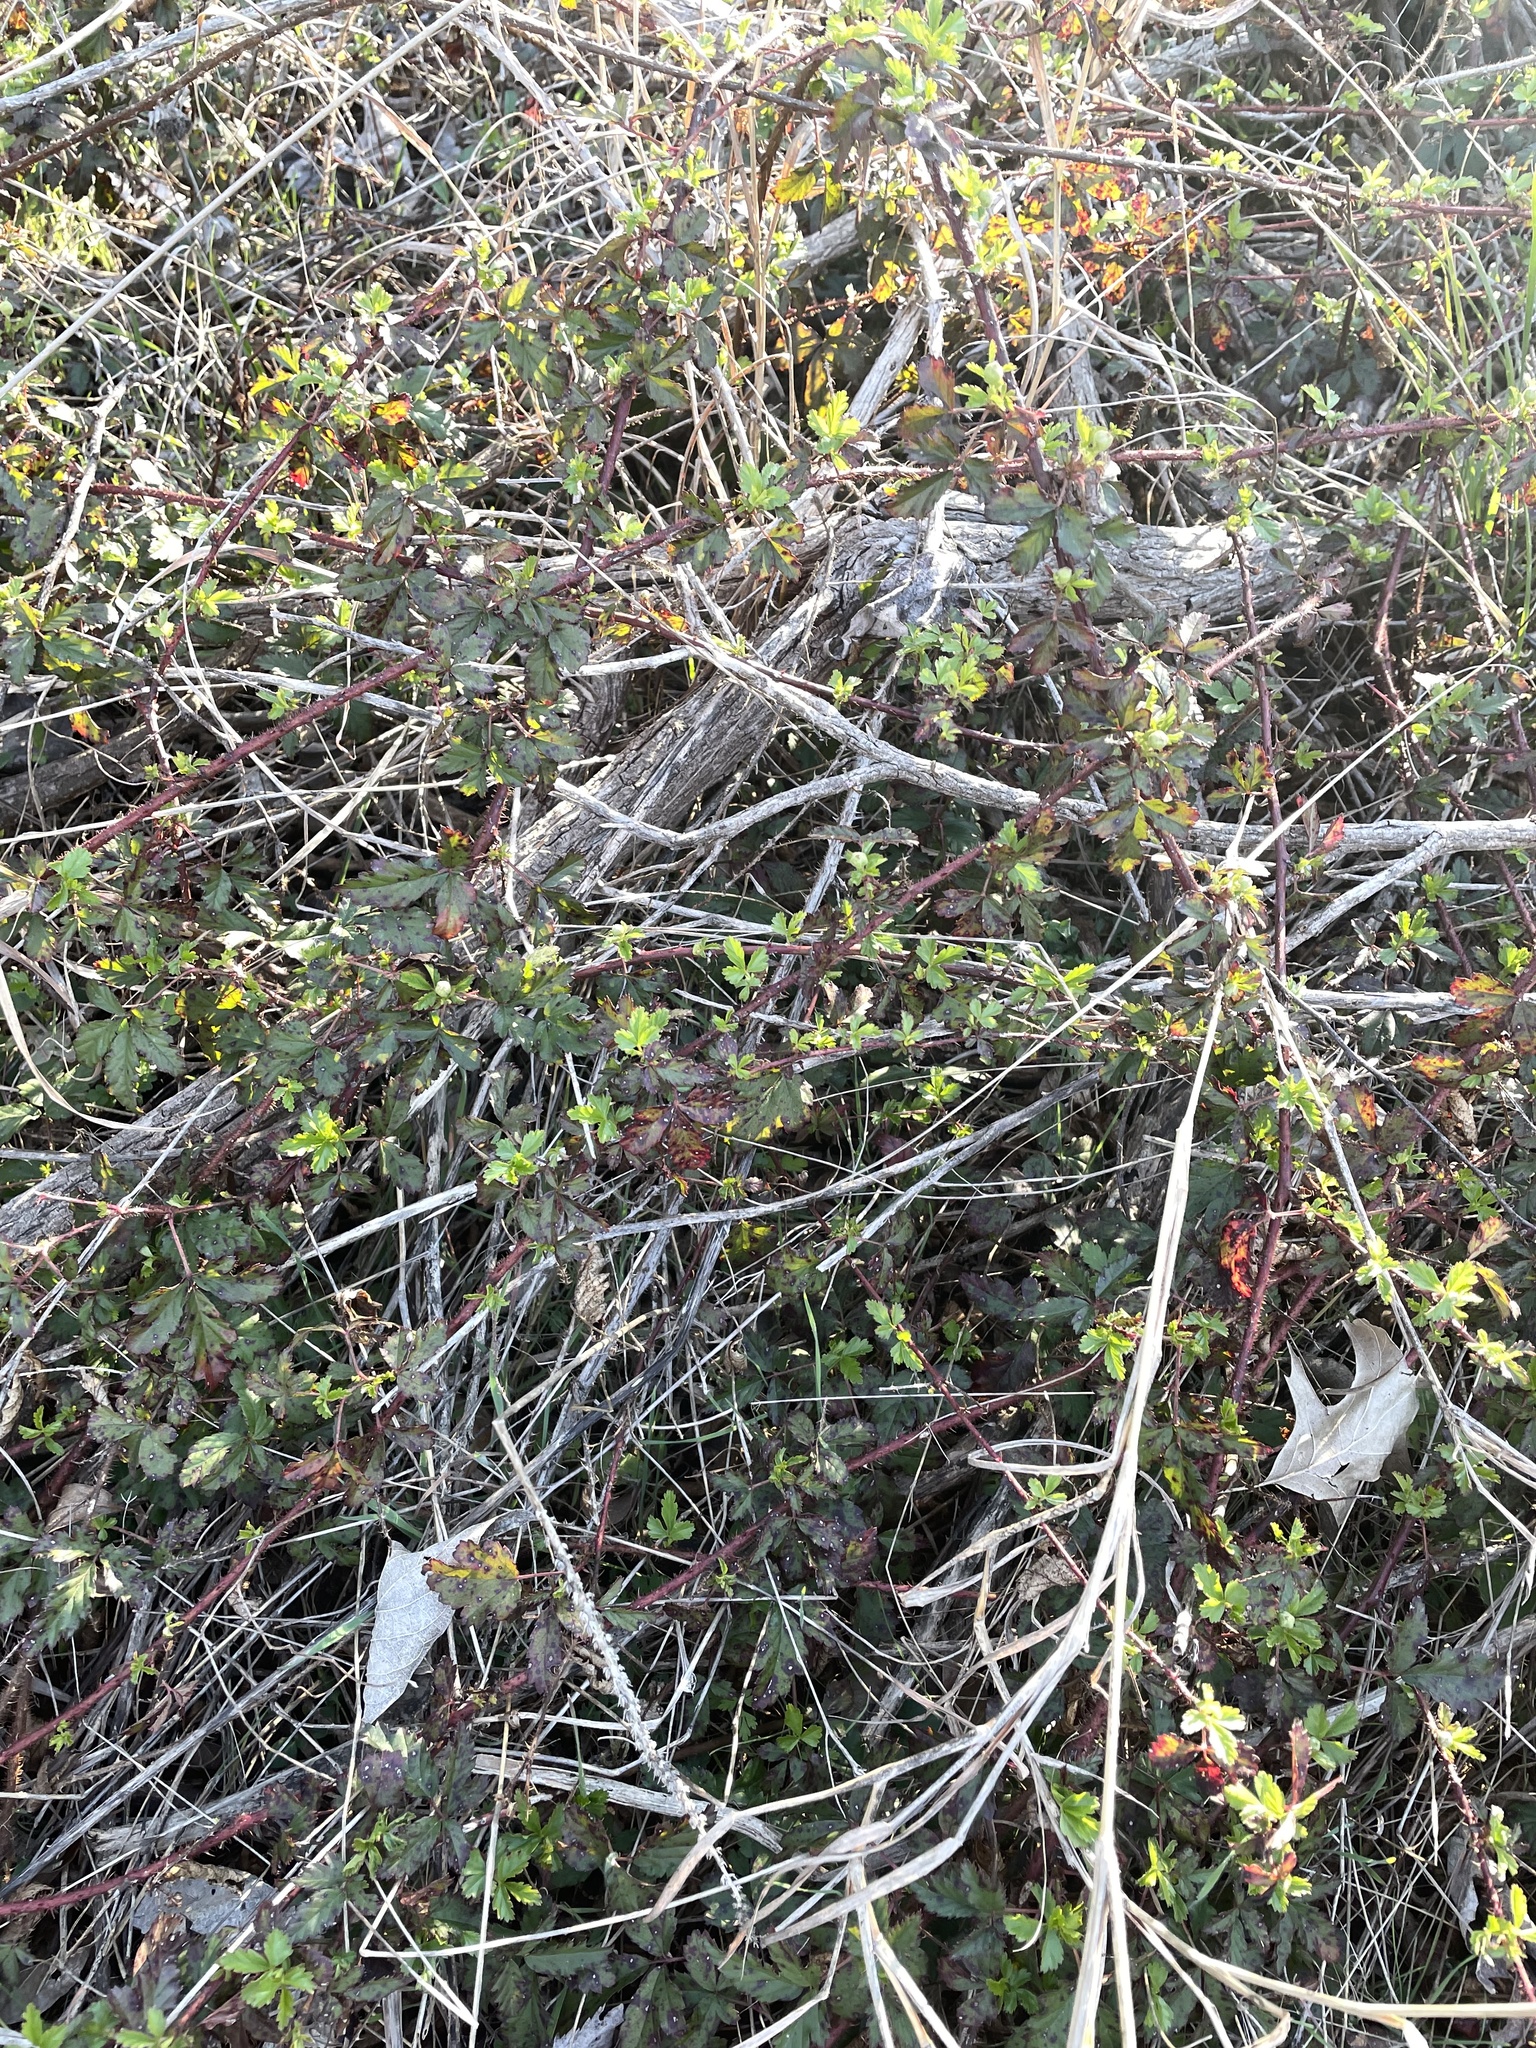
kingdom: Plantae
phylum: Tracheophyta
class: Magnoliopsida
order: Rosales
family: Rosaceae
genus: Rubus
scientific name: Rubus trivialis
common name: Southern dewberry
